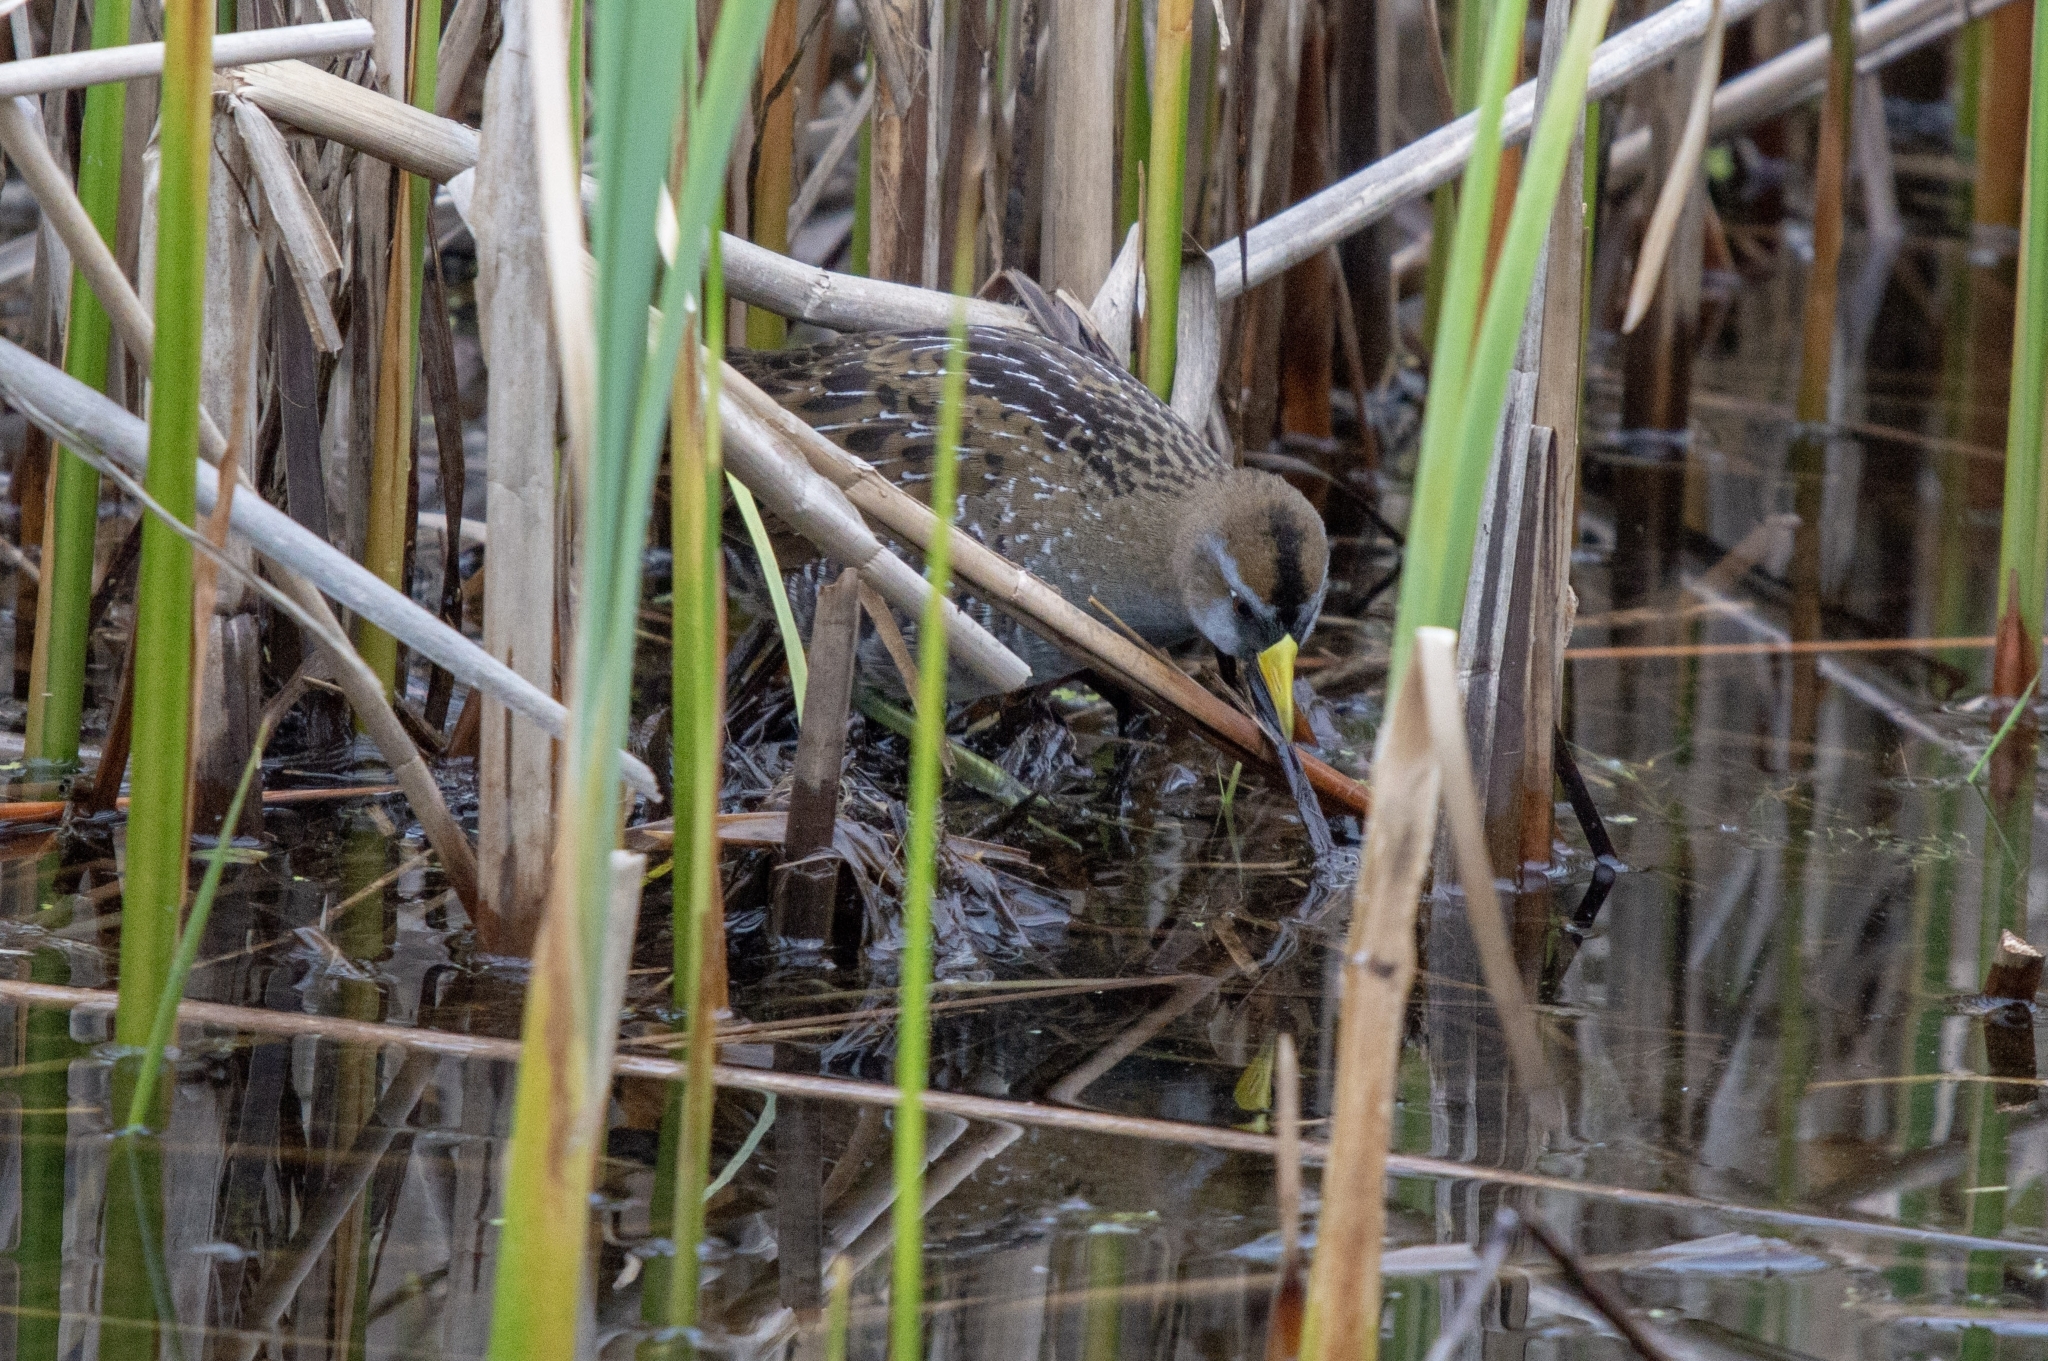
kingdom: Animalia
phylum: Chordata
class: Aves
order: Gruiformes
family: Rallidae
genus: Porzana
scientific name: Porzana carolina
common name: Sora
